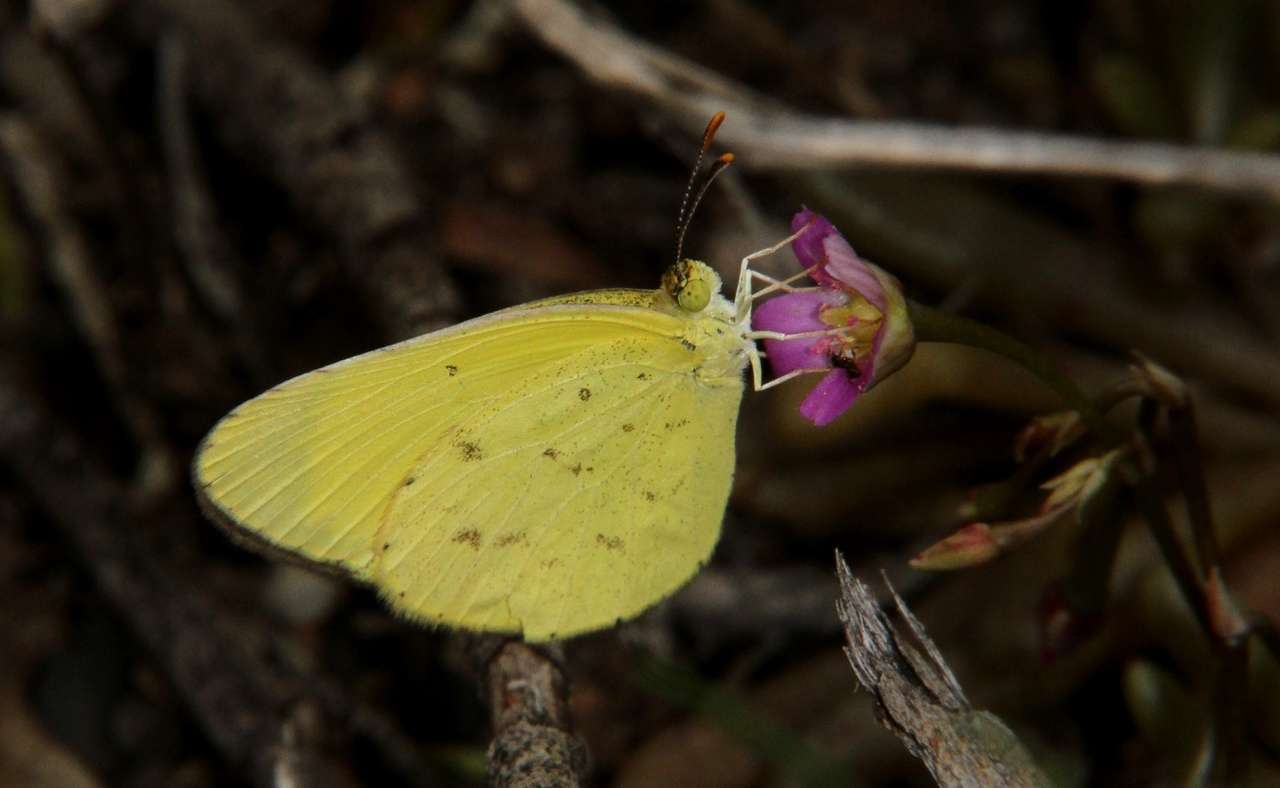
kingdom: Animalia
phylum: Arthropoda
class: Insecta
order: Lepidoptera
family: Pieridae
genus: Eurema
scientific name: Eurema smilax
